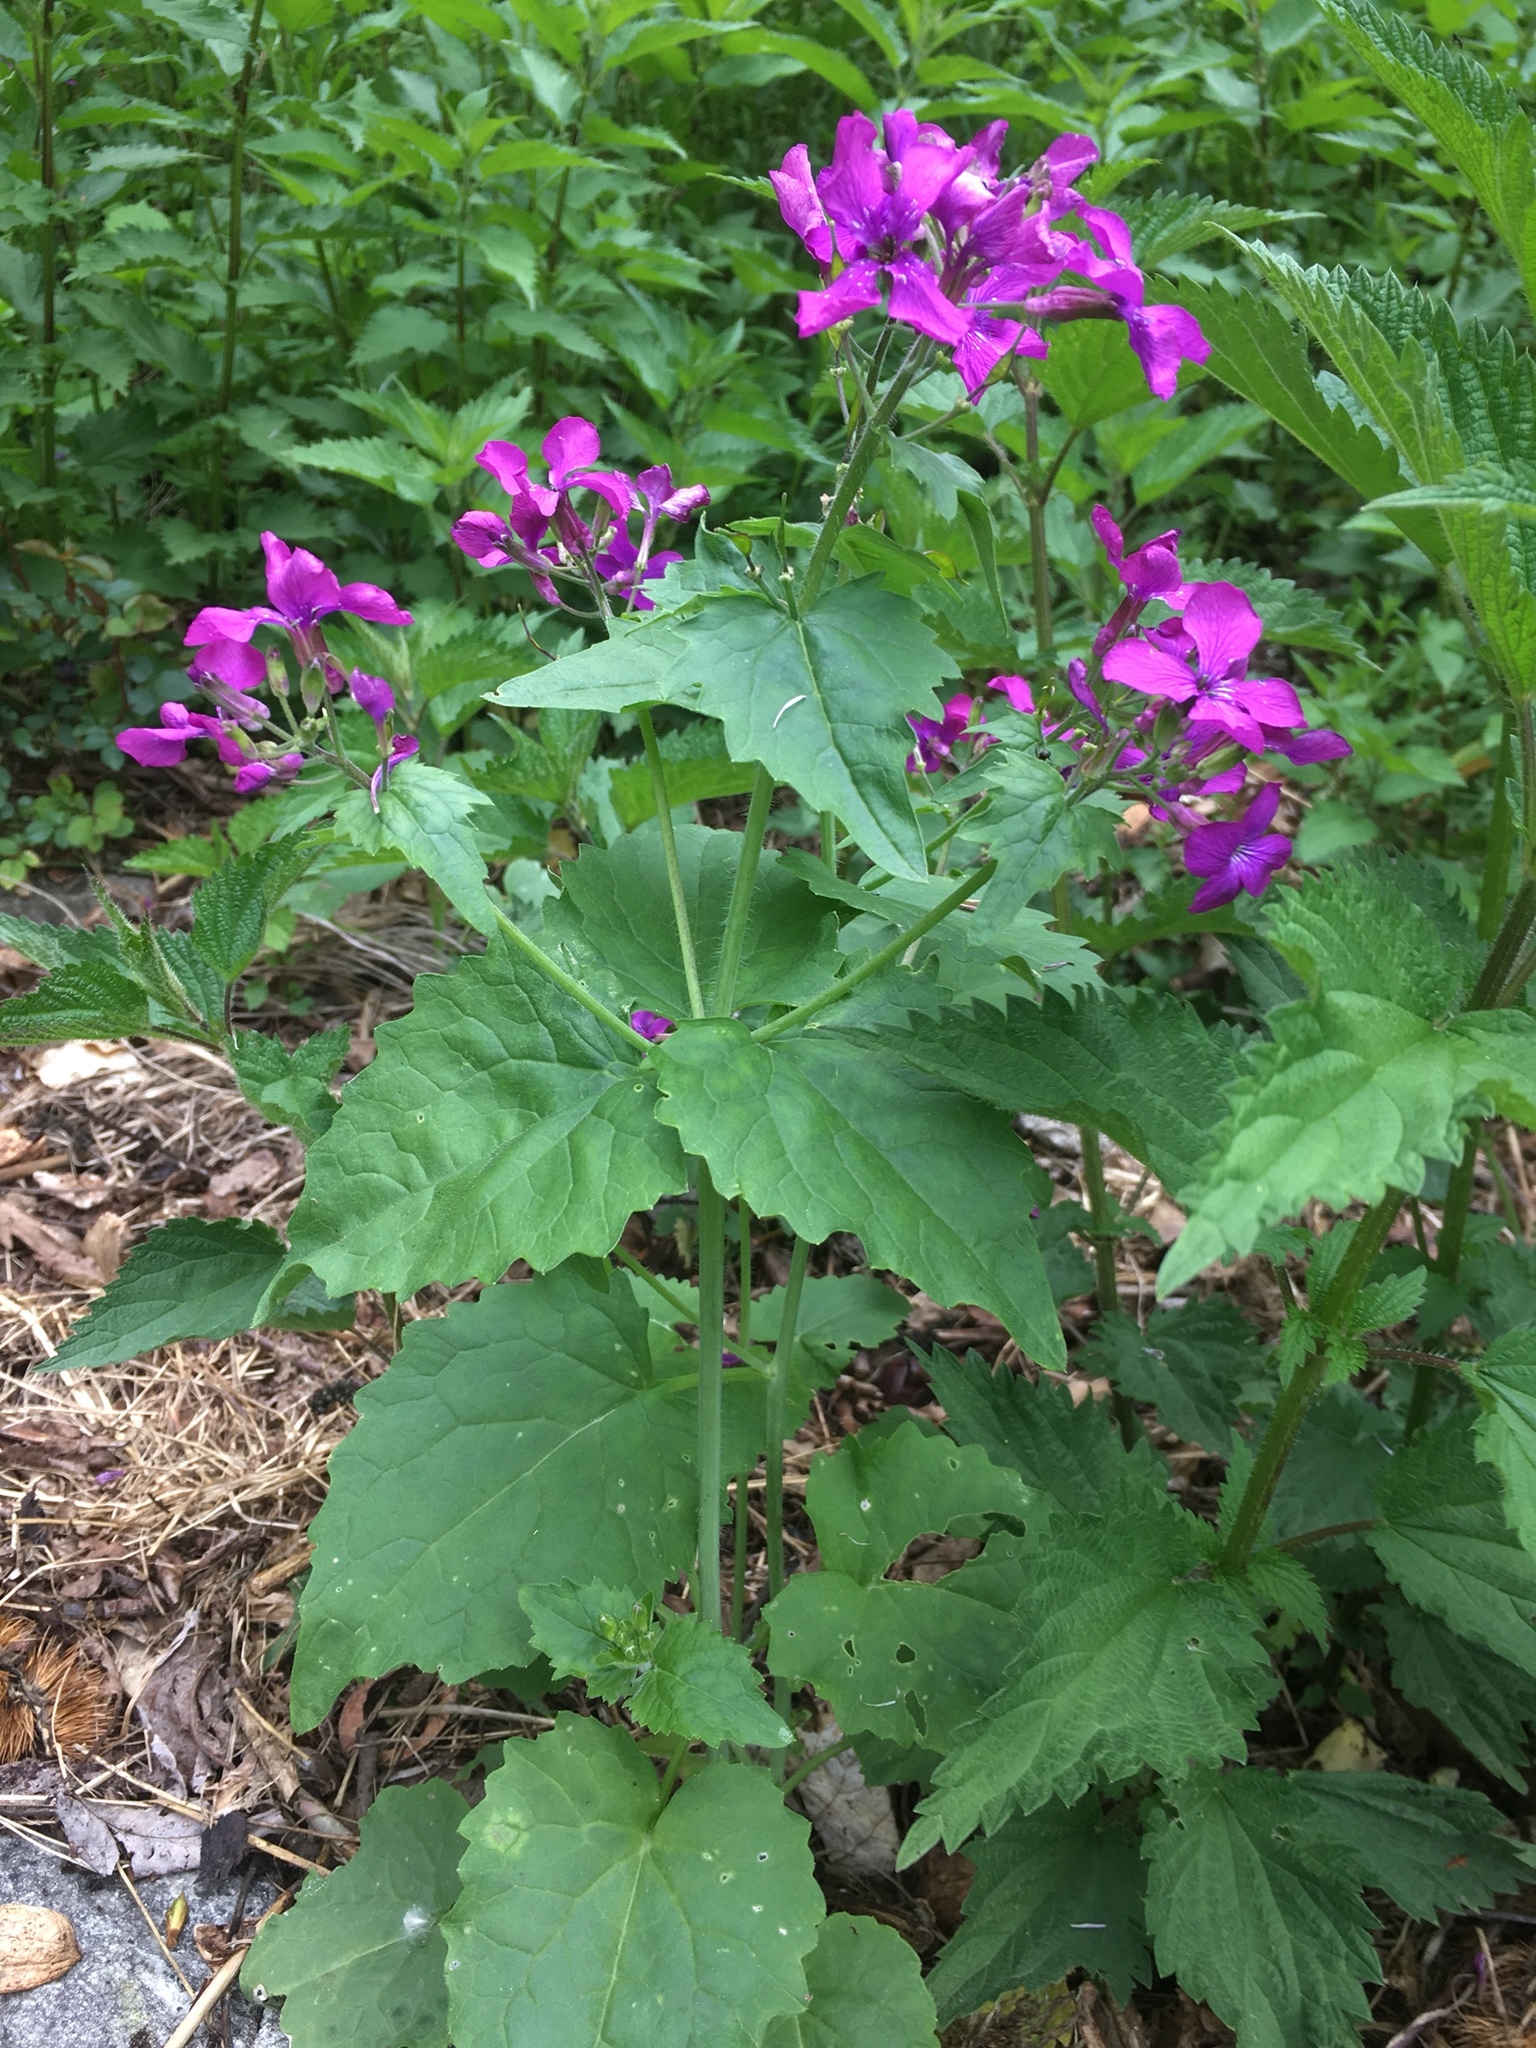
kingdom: Plantae
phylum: Tracheophyta
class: Magnoliopsida
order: Brassicales
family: Brassicaceae
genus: Lunaria
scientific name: Lunaria annua
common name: Honesty
